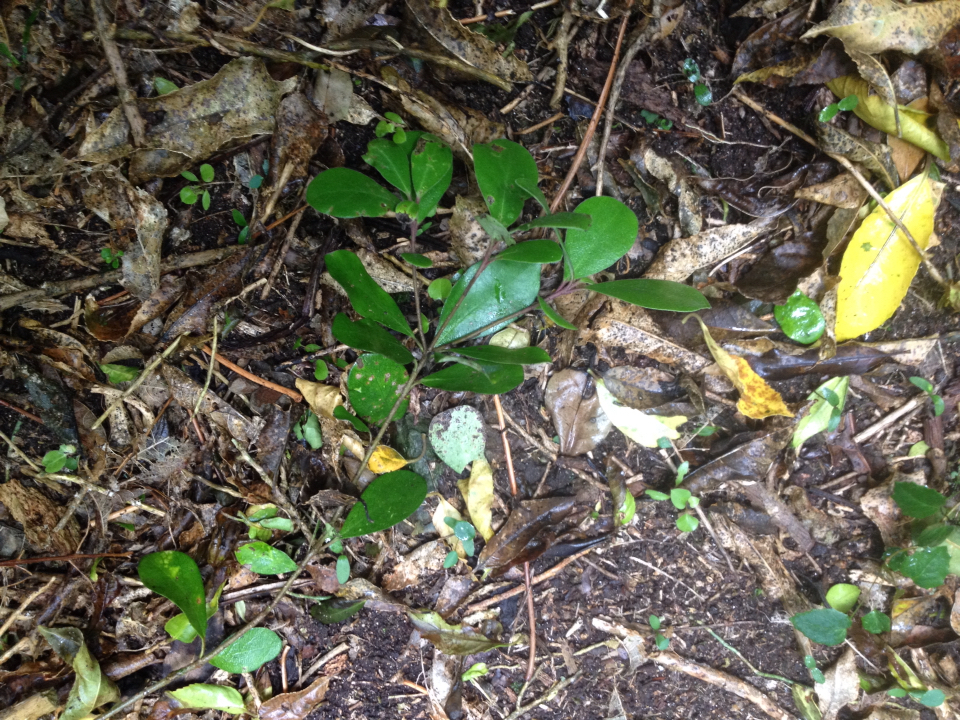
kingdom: Plantae
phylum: Tracheophyta
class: Magnoliopsida
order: Apiales
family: Pittosporaceae
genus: Pittosporum
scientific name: Pittosporum crassifolium
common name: Karo
